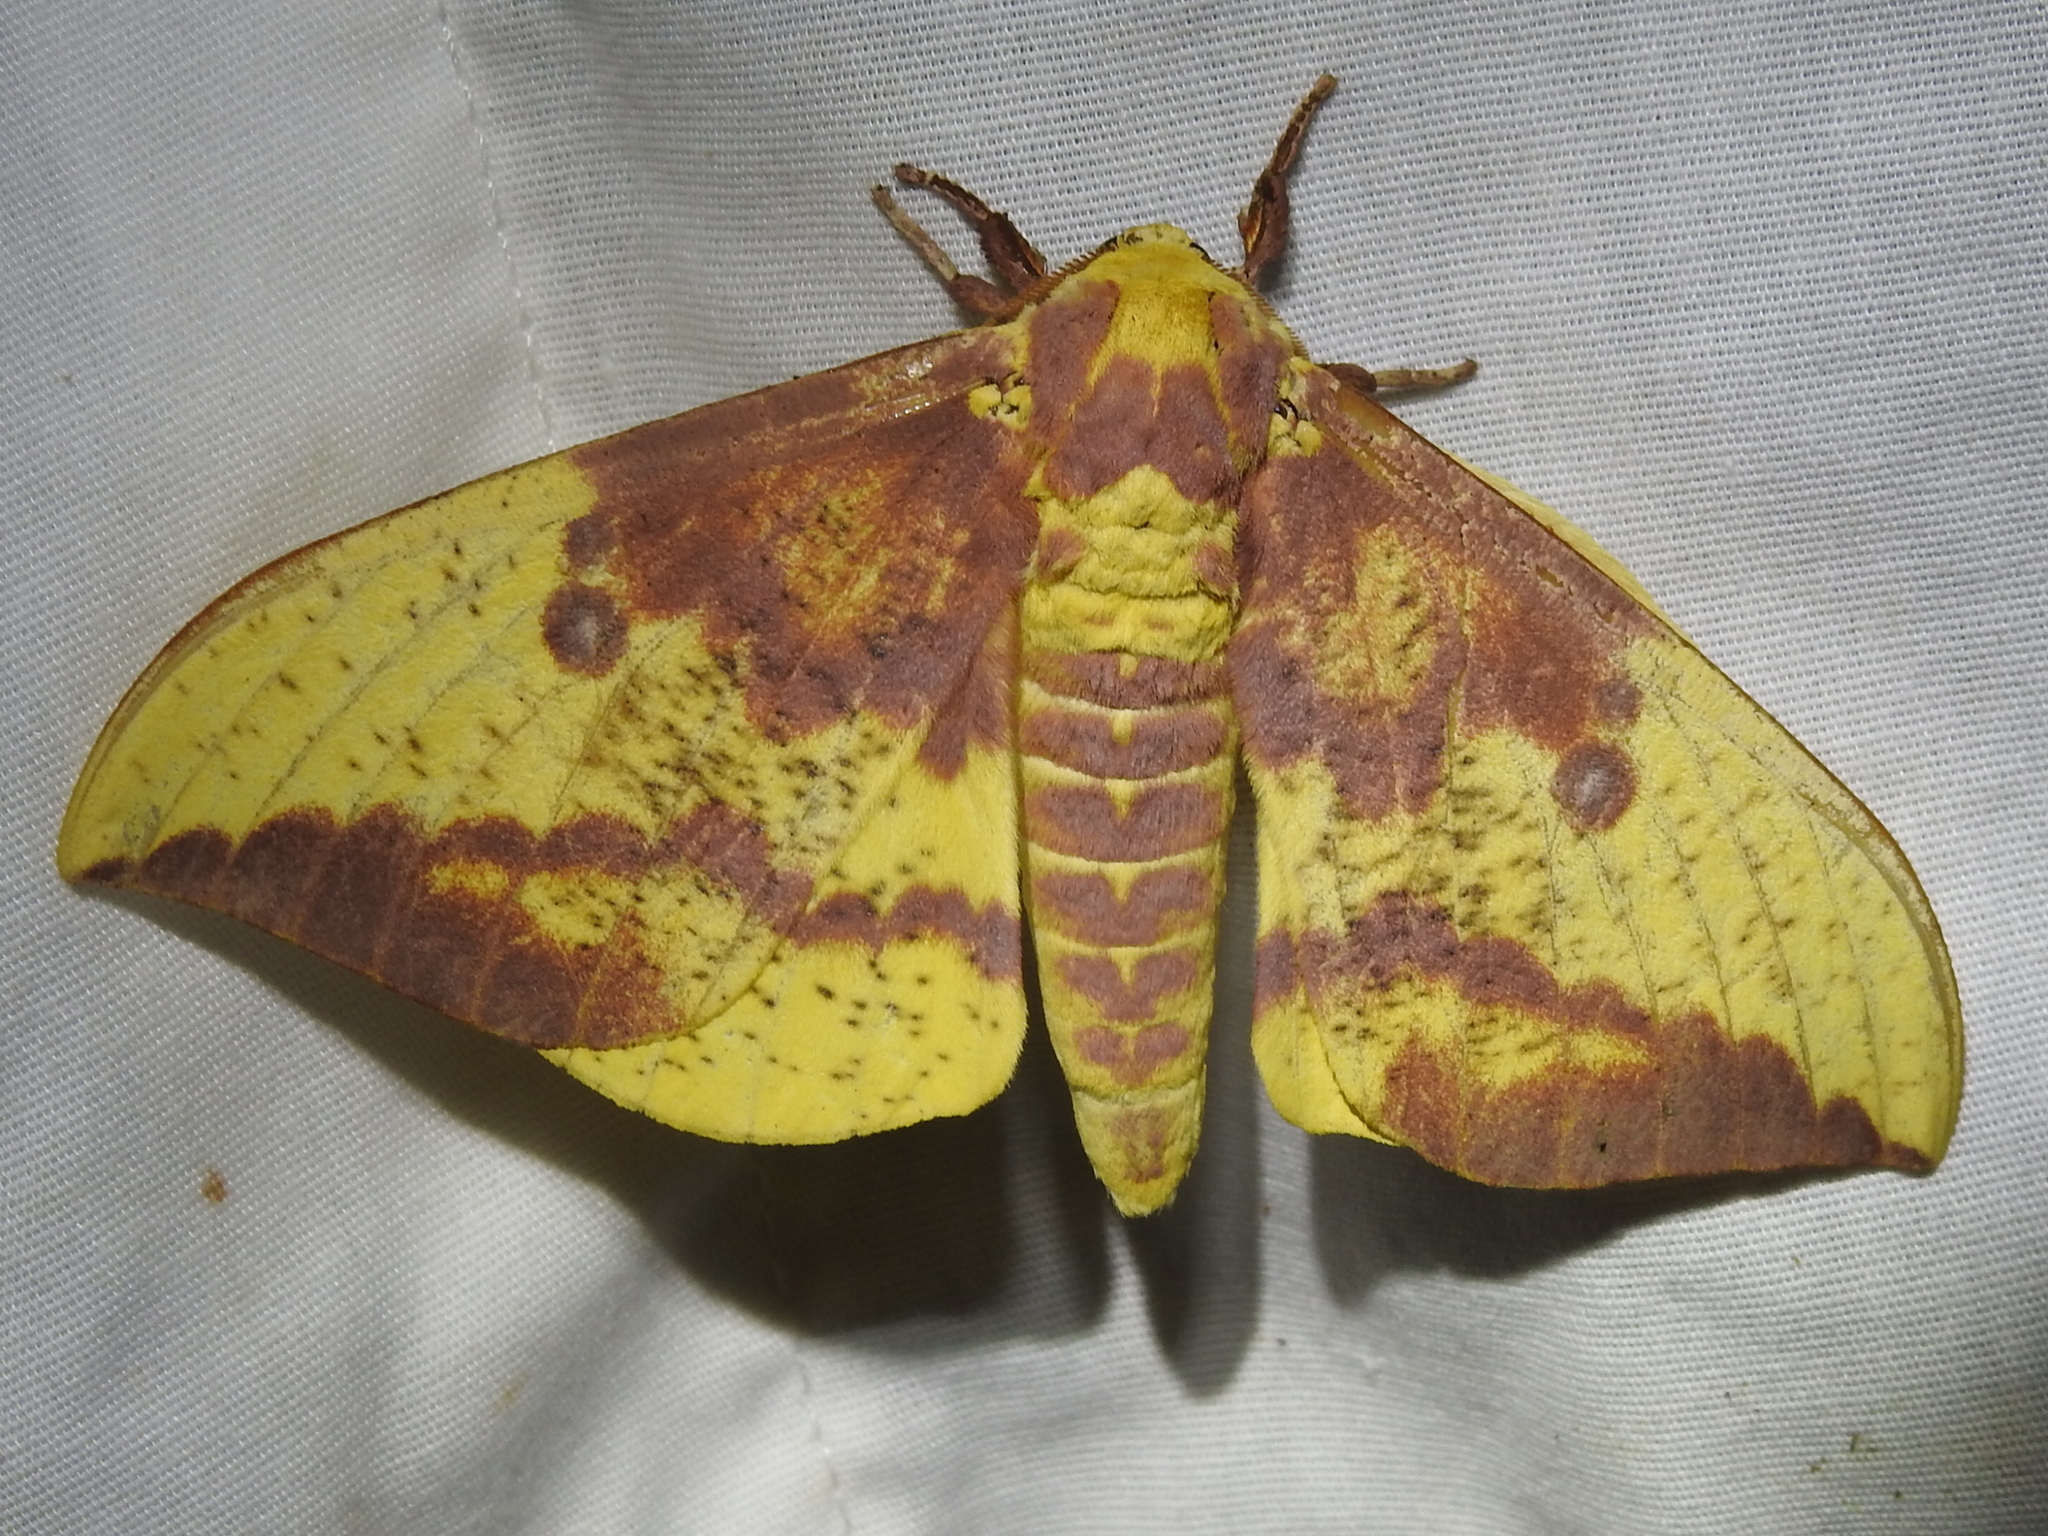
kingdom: Animalia
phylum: Arthropoda
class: Insecta
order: Lepidoptera
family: Saturniidae
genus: Eacles
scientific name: Eacles imperialis
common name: Imperial moth
